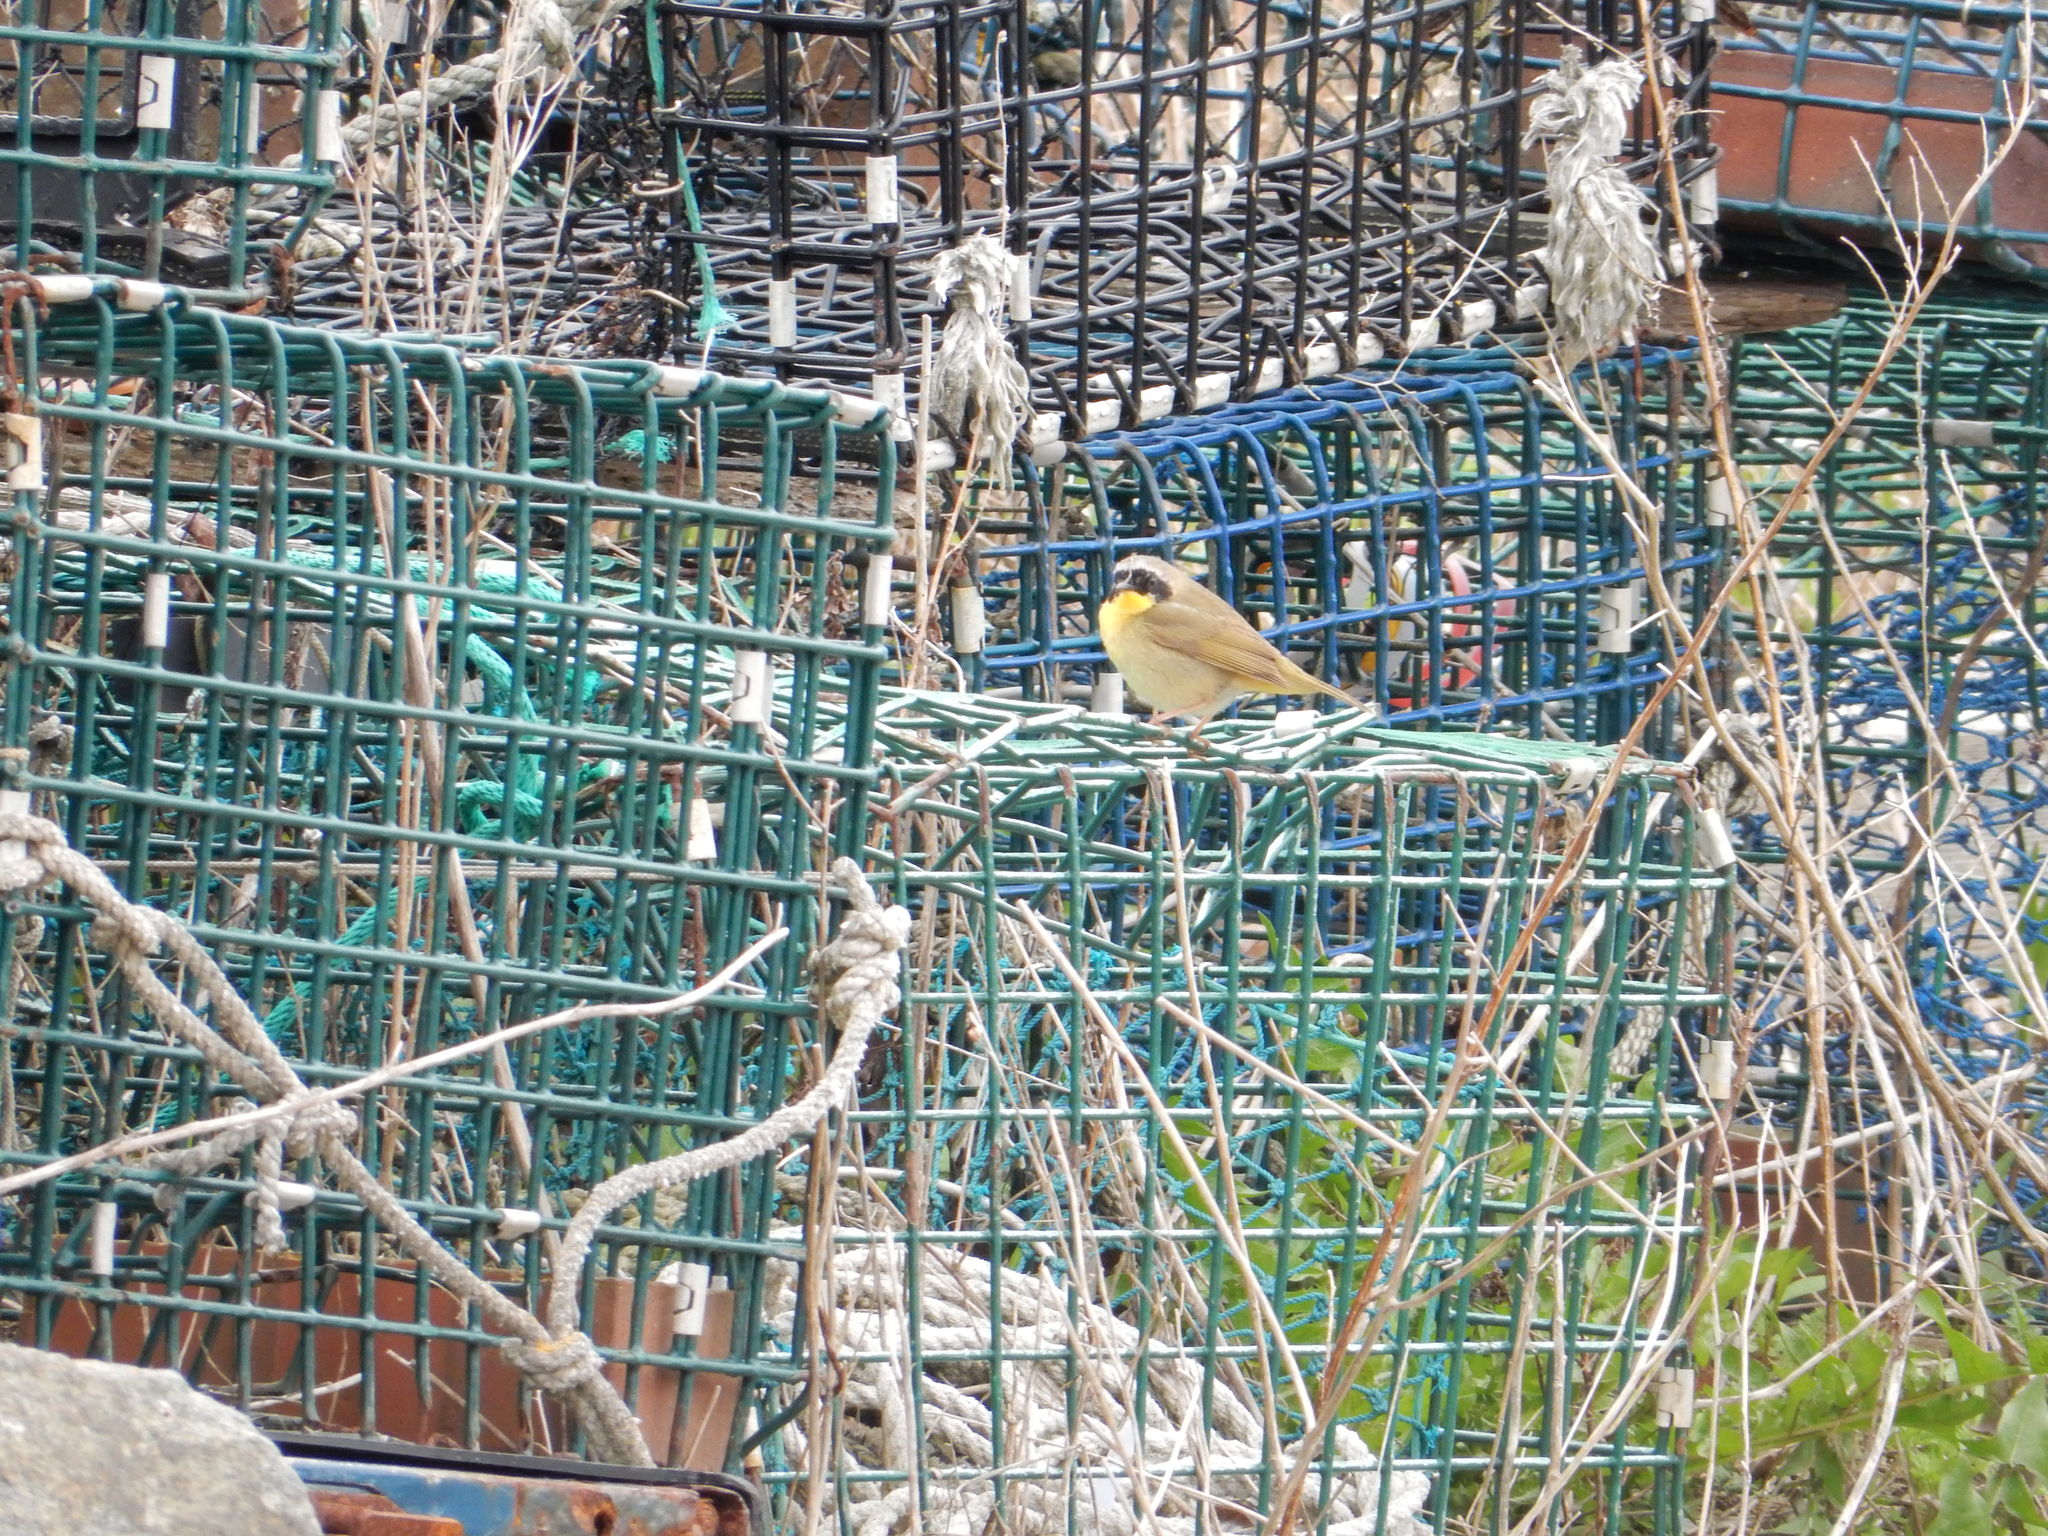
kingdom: Animalia
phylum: Chordata
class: Aves
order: Passeriformes
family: Parulidae
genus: Geothlypis
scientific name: Geothlypis trichas
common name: Common yellowthroat
